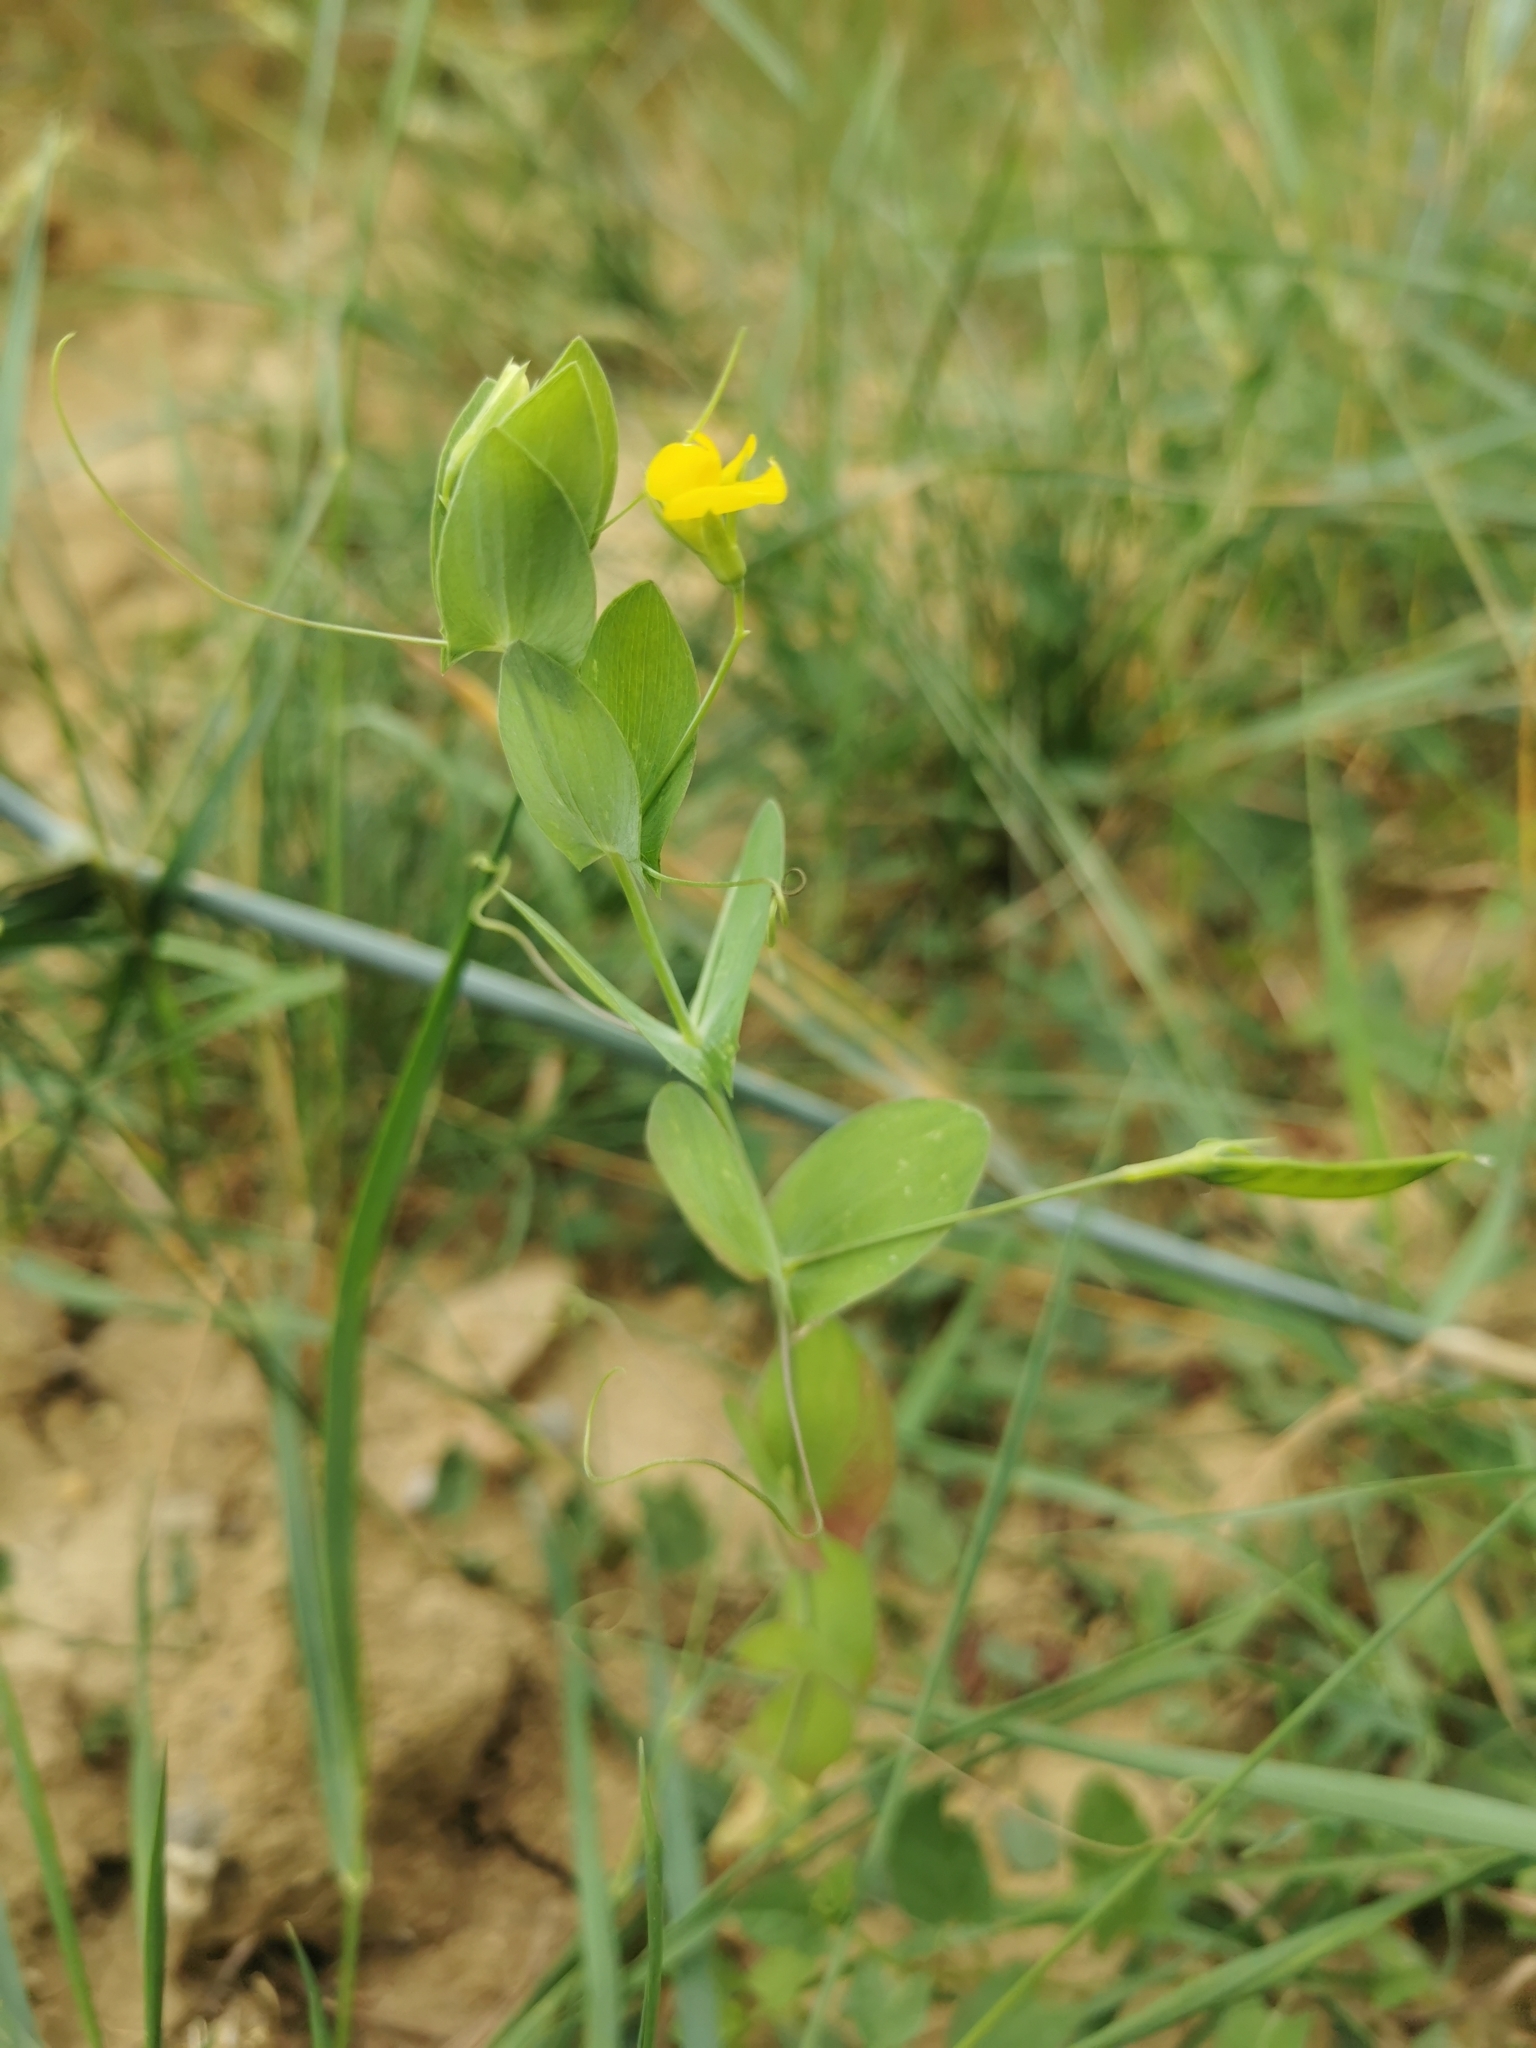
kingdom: Plantae
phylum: Tracheophyta
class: Magnoliopsida
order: Fabales
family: Fabaceae
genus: Lathyrus
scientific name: Lathyrus aphaca
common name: Yellow vetchling
